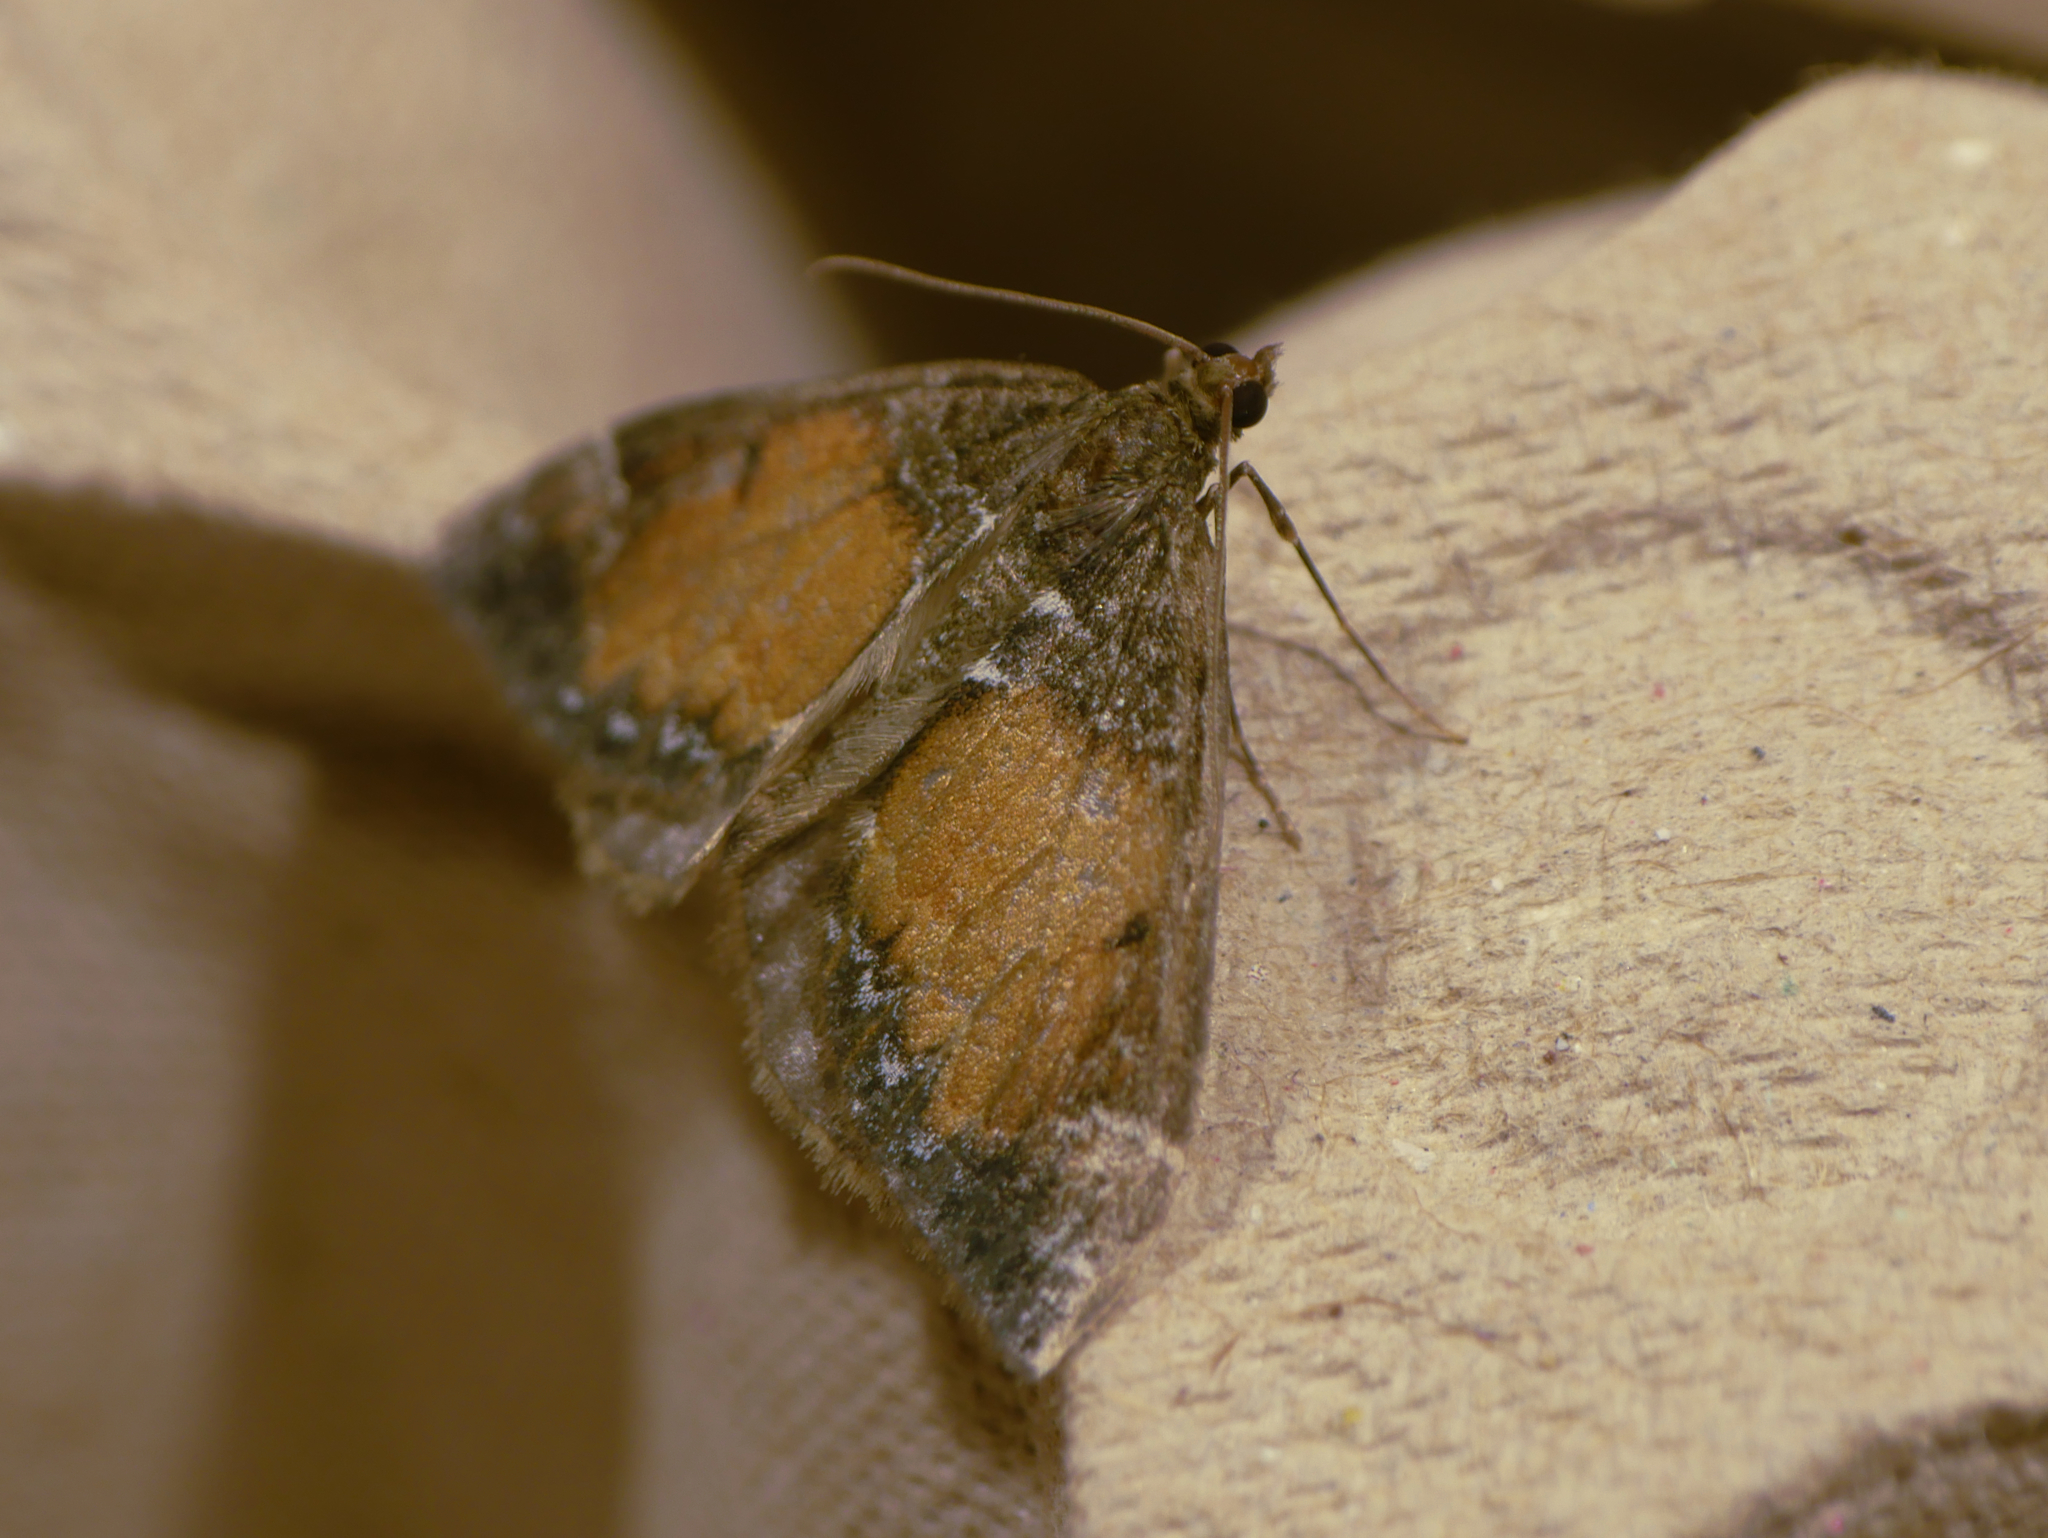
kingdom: Animalia
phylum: Arthropoda
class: Insecta
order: Lepidoptera
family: Geometridae
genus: Dysstroma
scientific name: Dysstroma truncata
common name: Common marbled carpet
